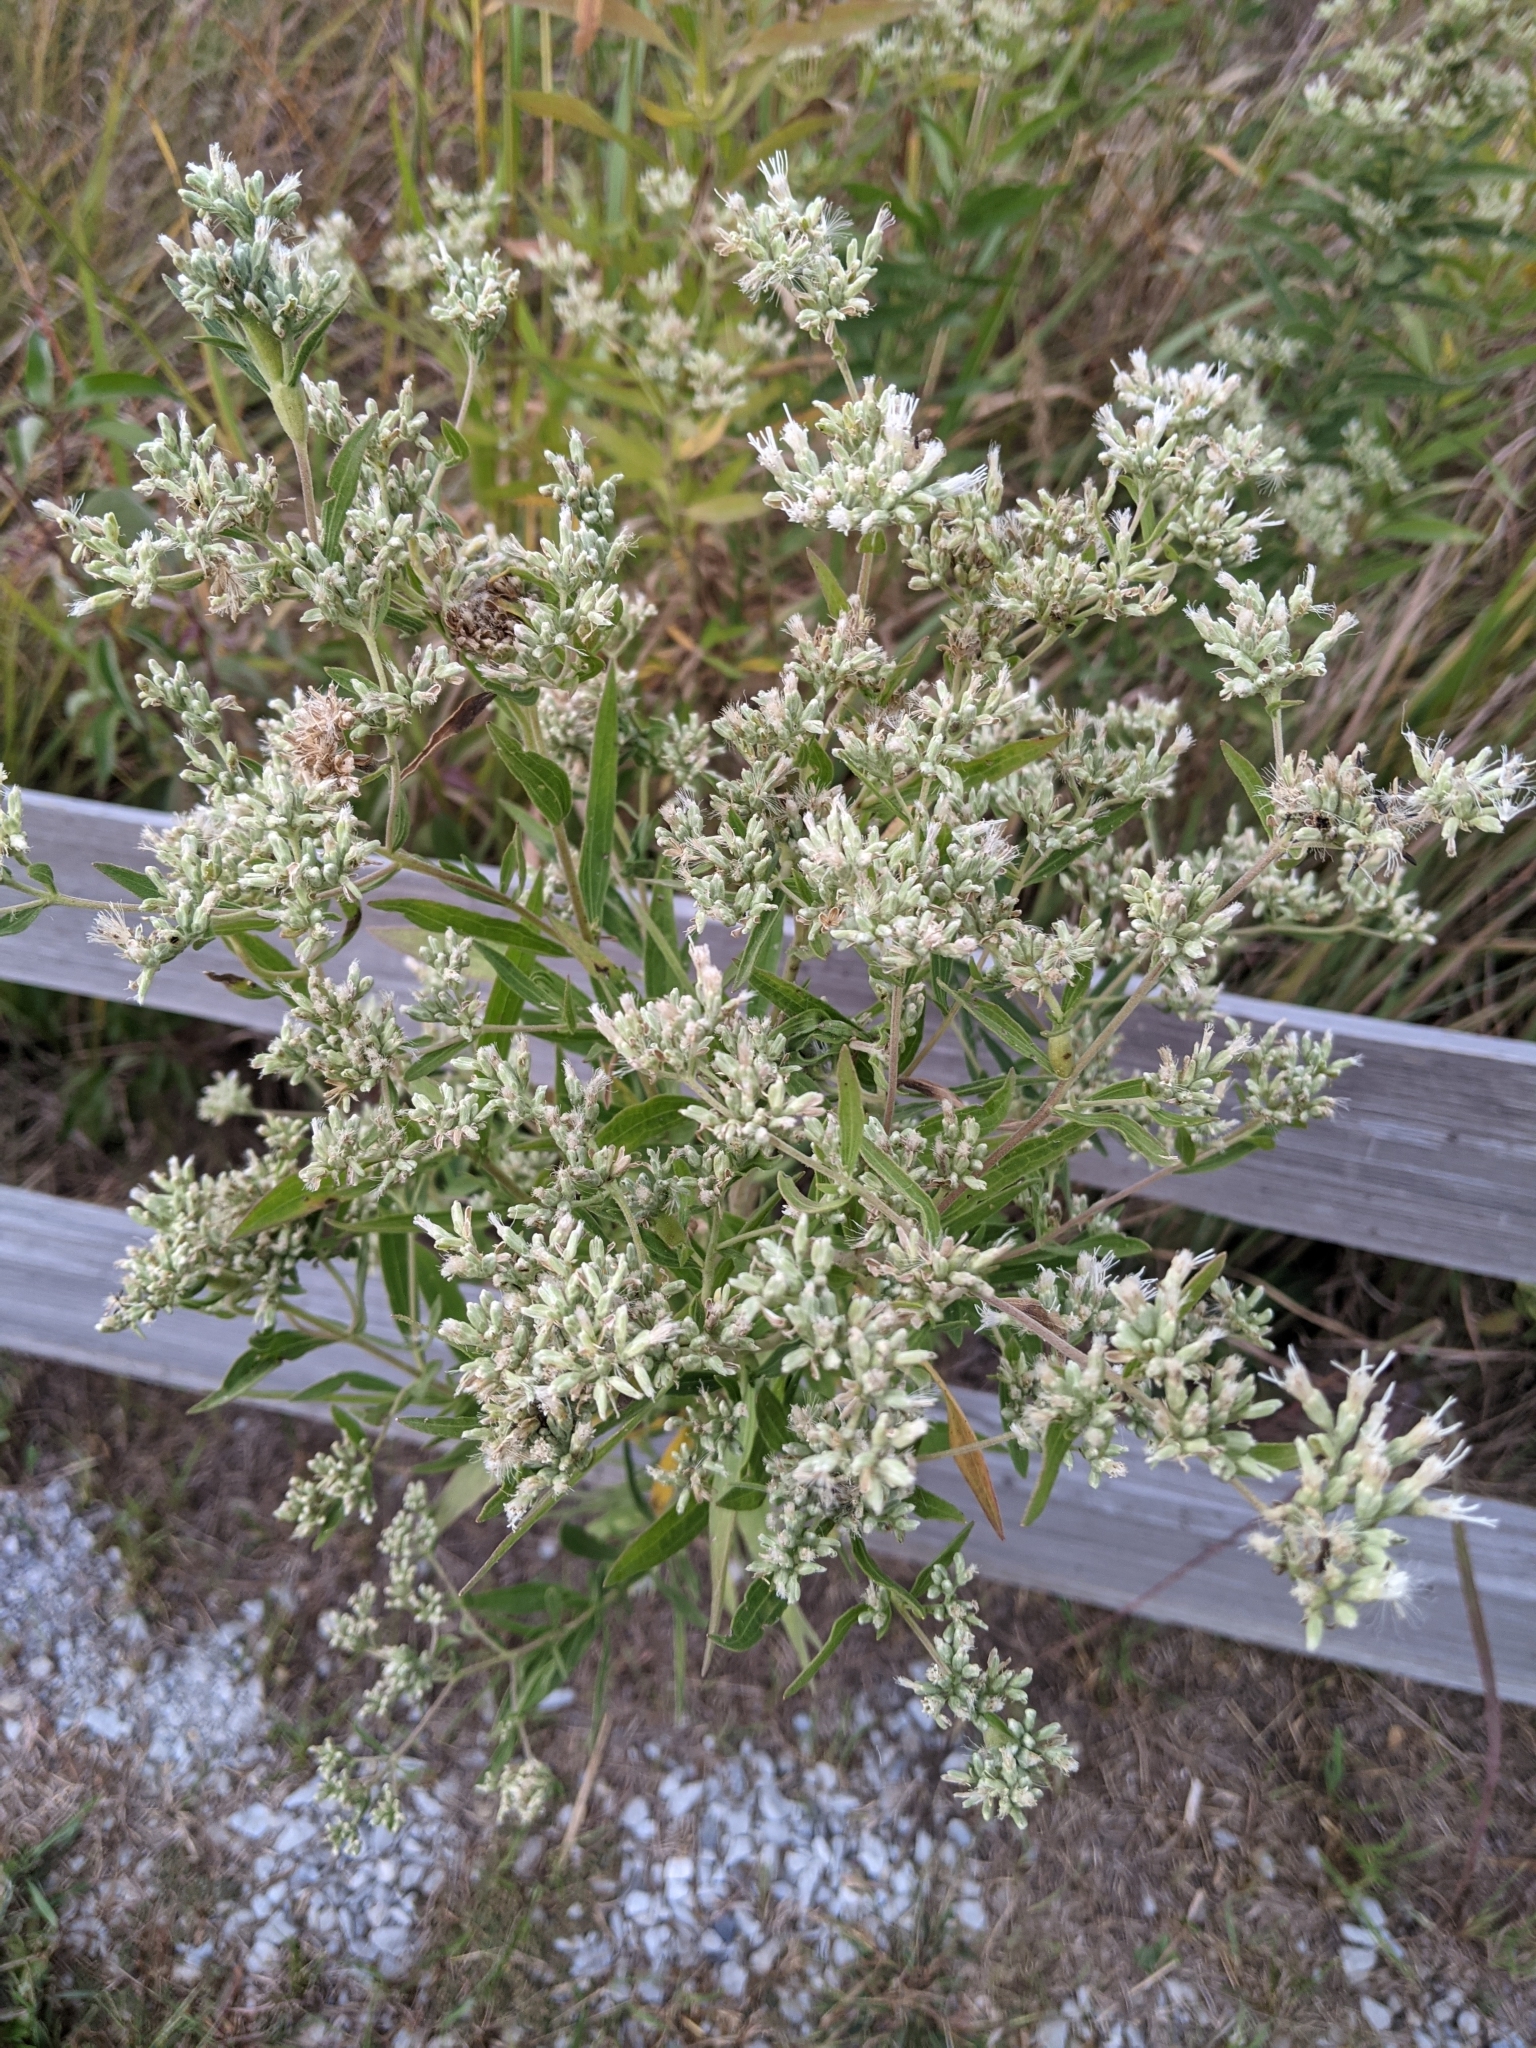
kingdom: Plantae
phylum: Tracheophyta
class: Magnoliopsida
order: Asterales
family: Asteraceae
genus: Eupatorium
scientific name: Eupatorium altissimum
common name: Tall thoroughwort
